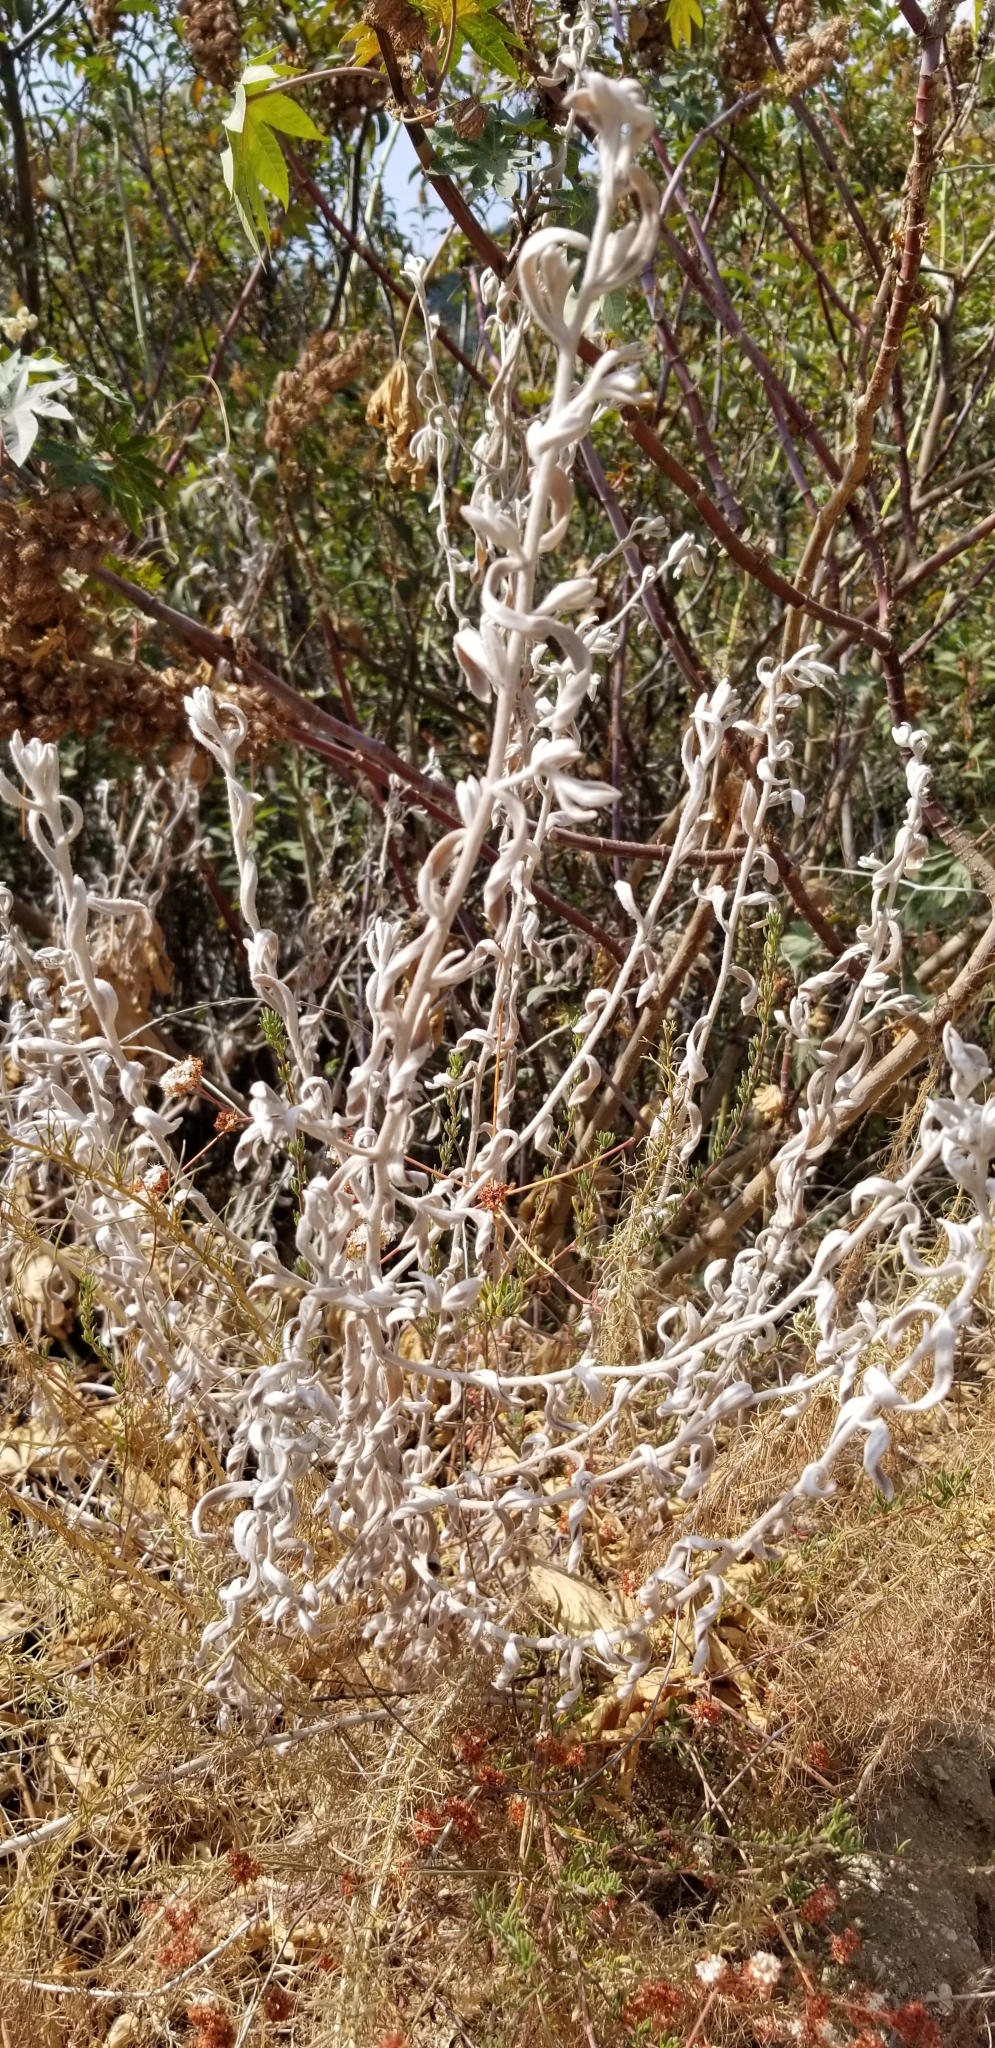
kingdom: Plantae
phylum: Tracheophyta
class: Magnoliopsida
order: Asterales
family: Asteraceae
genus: Pseudognaphalium
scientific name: Pseudognaphalium microcephalum
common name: San diego rabbit-tobacco
